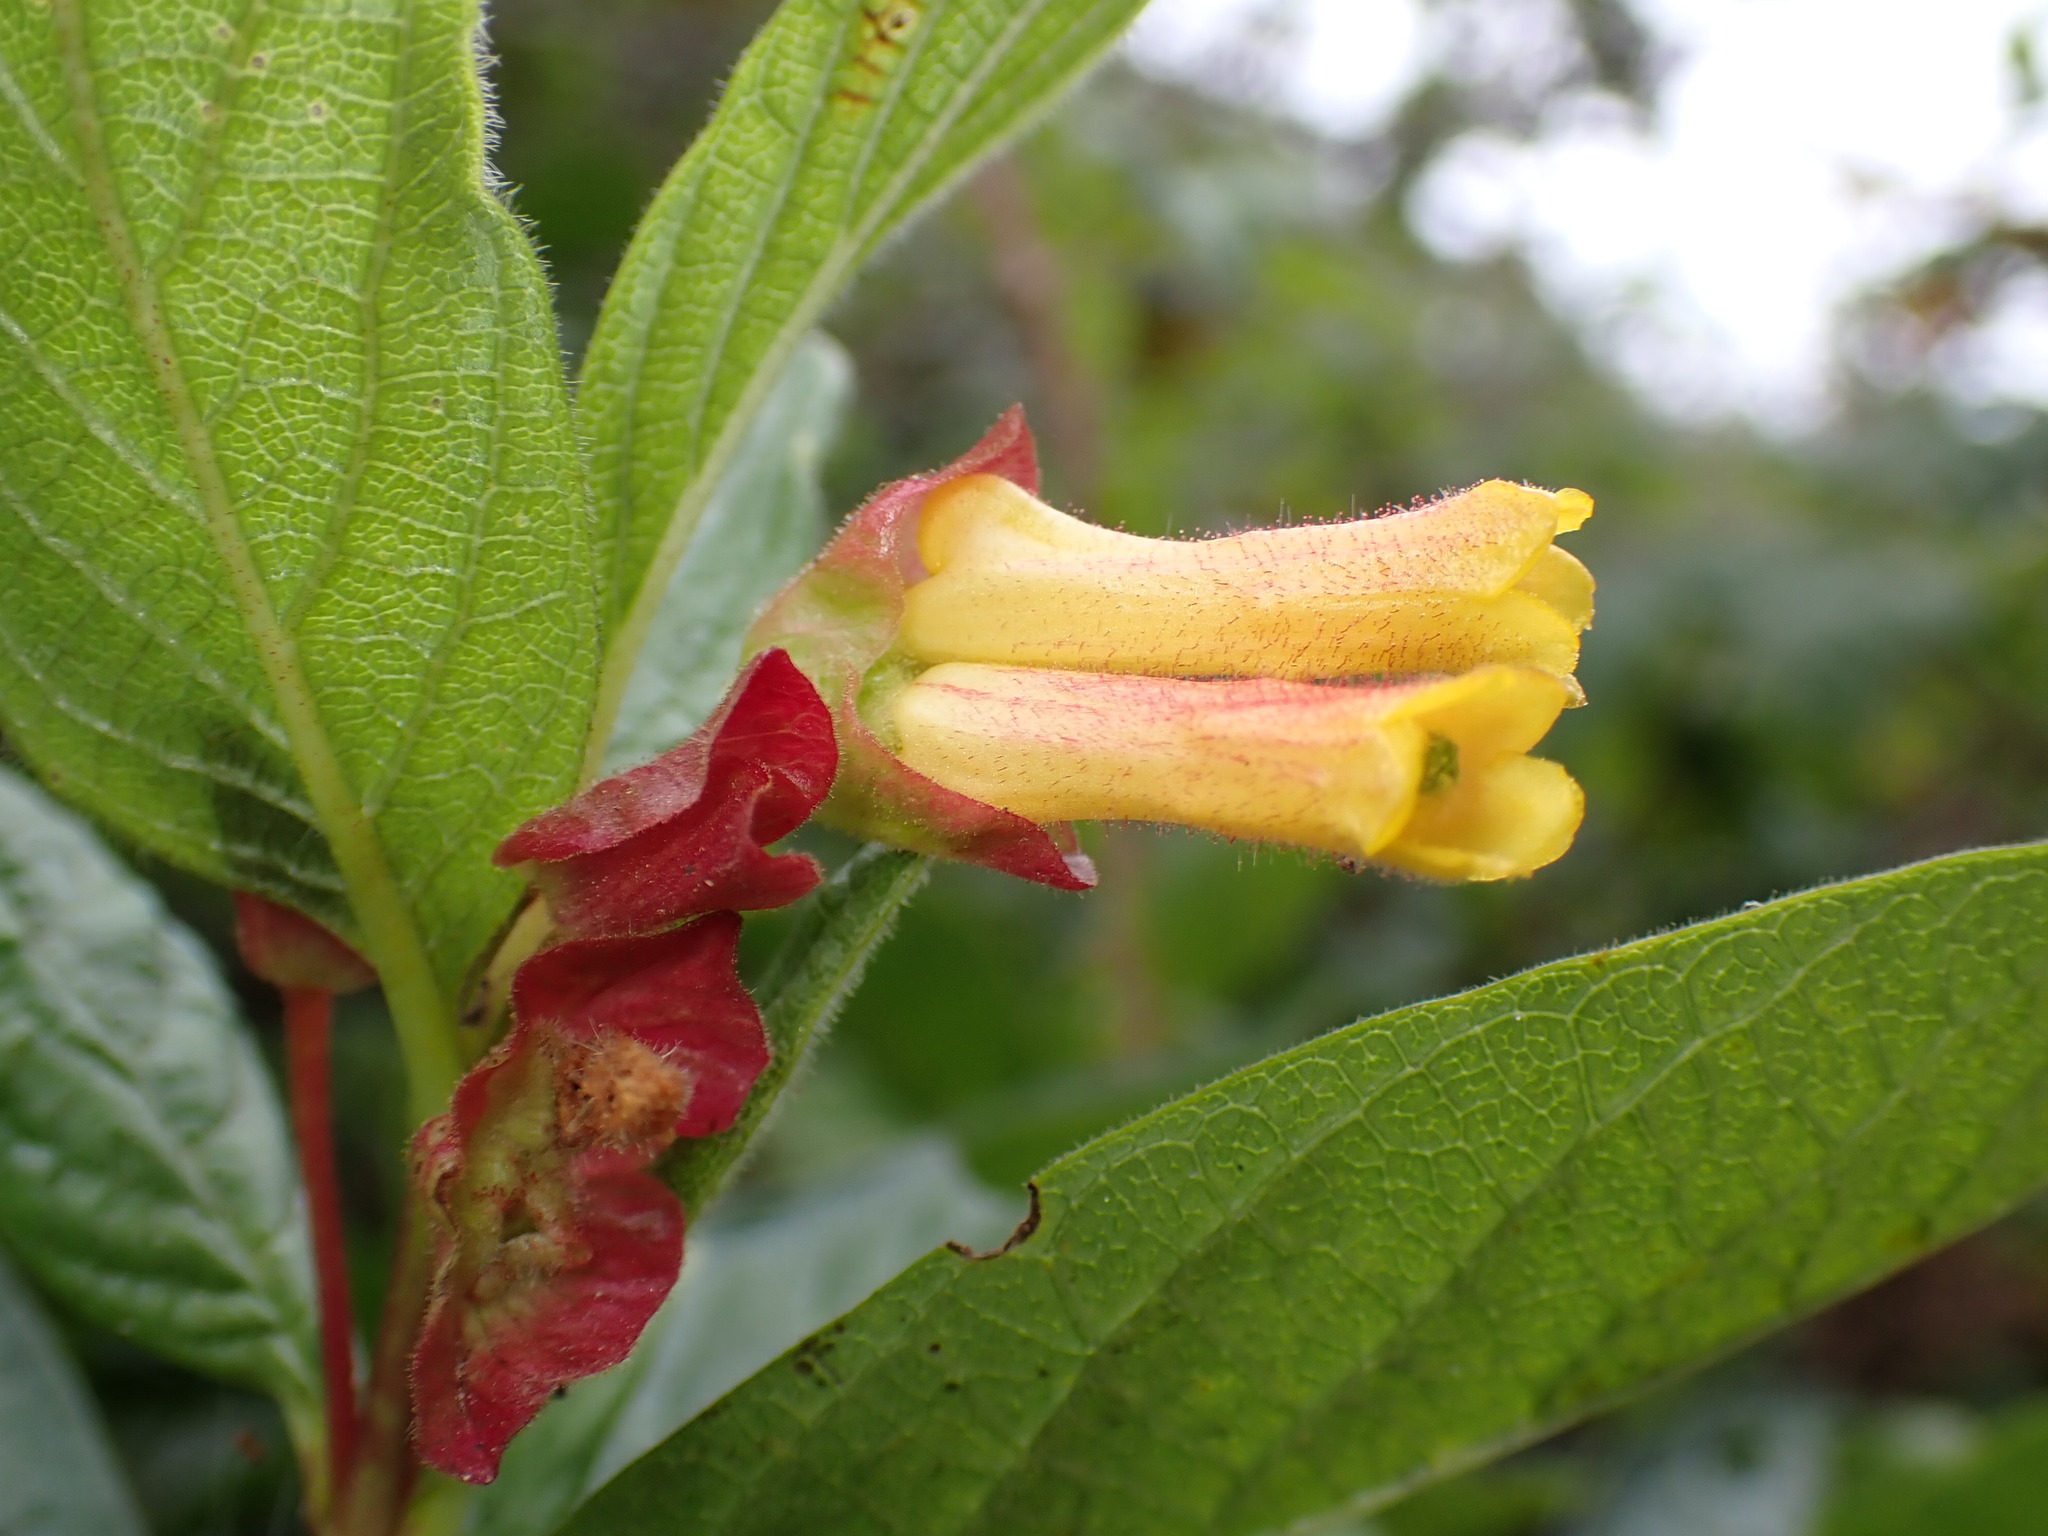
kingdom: Plantae
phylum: Tracheophyta
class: Magnoliopsida
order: Dipsacales
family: Caprifoliaceae
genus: Lonicera
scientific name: Lonicera involucrata
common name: Californian honeysuckle
